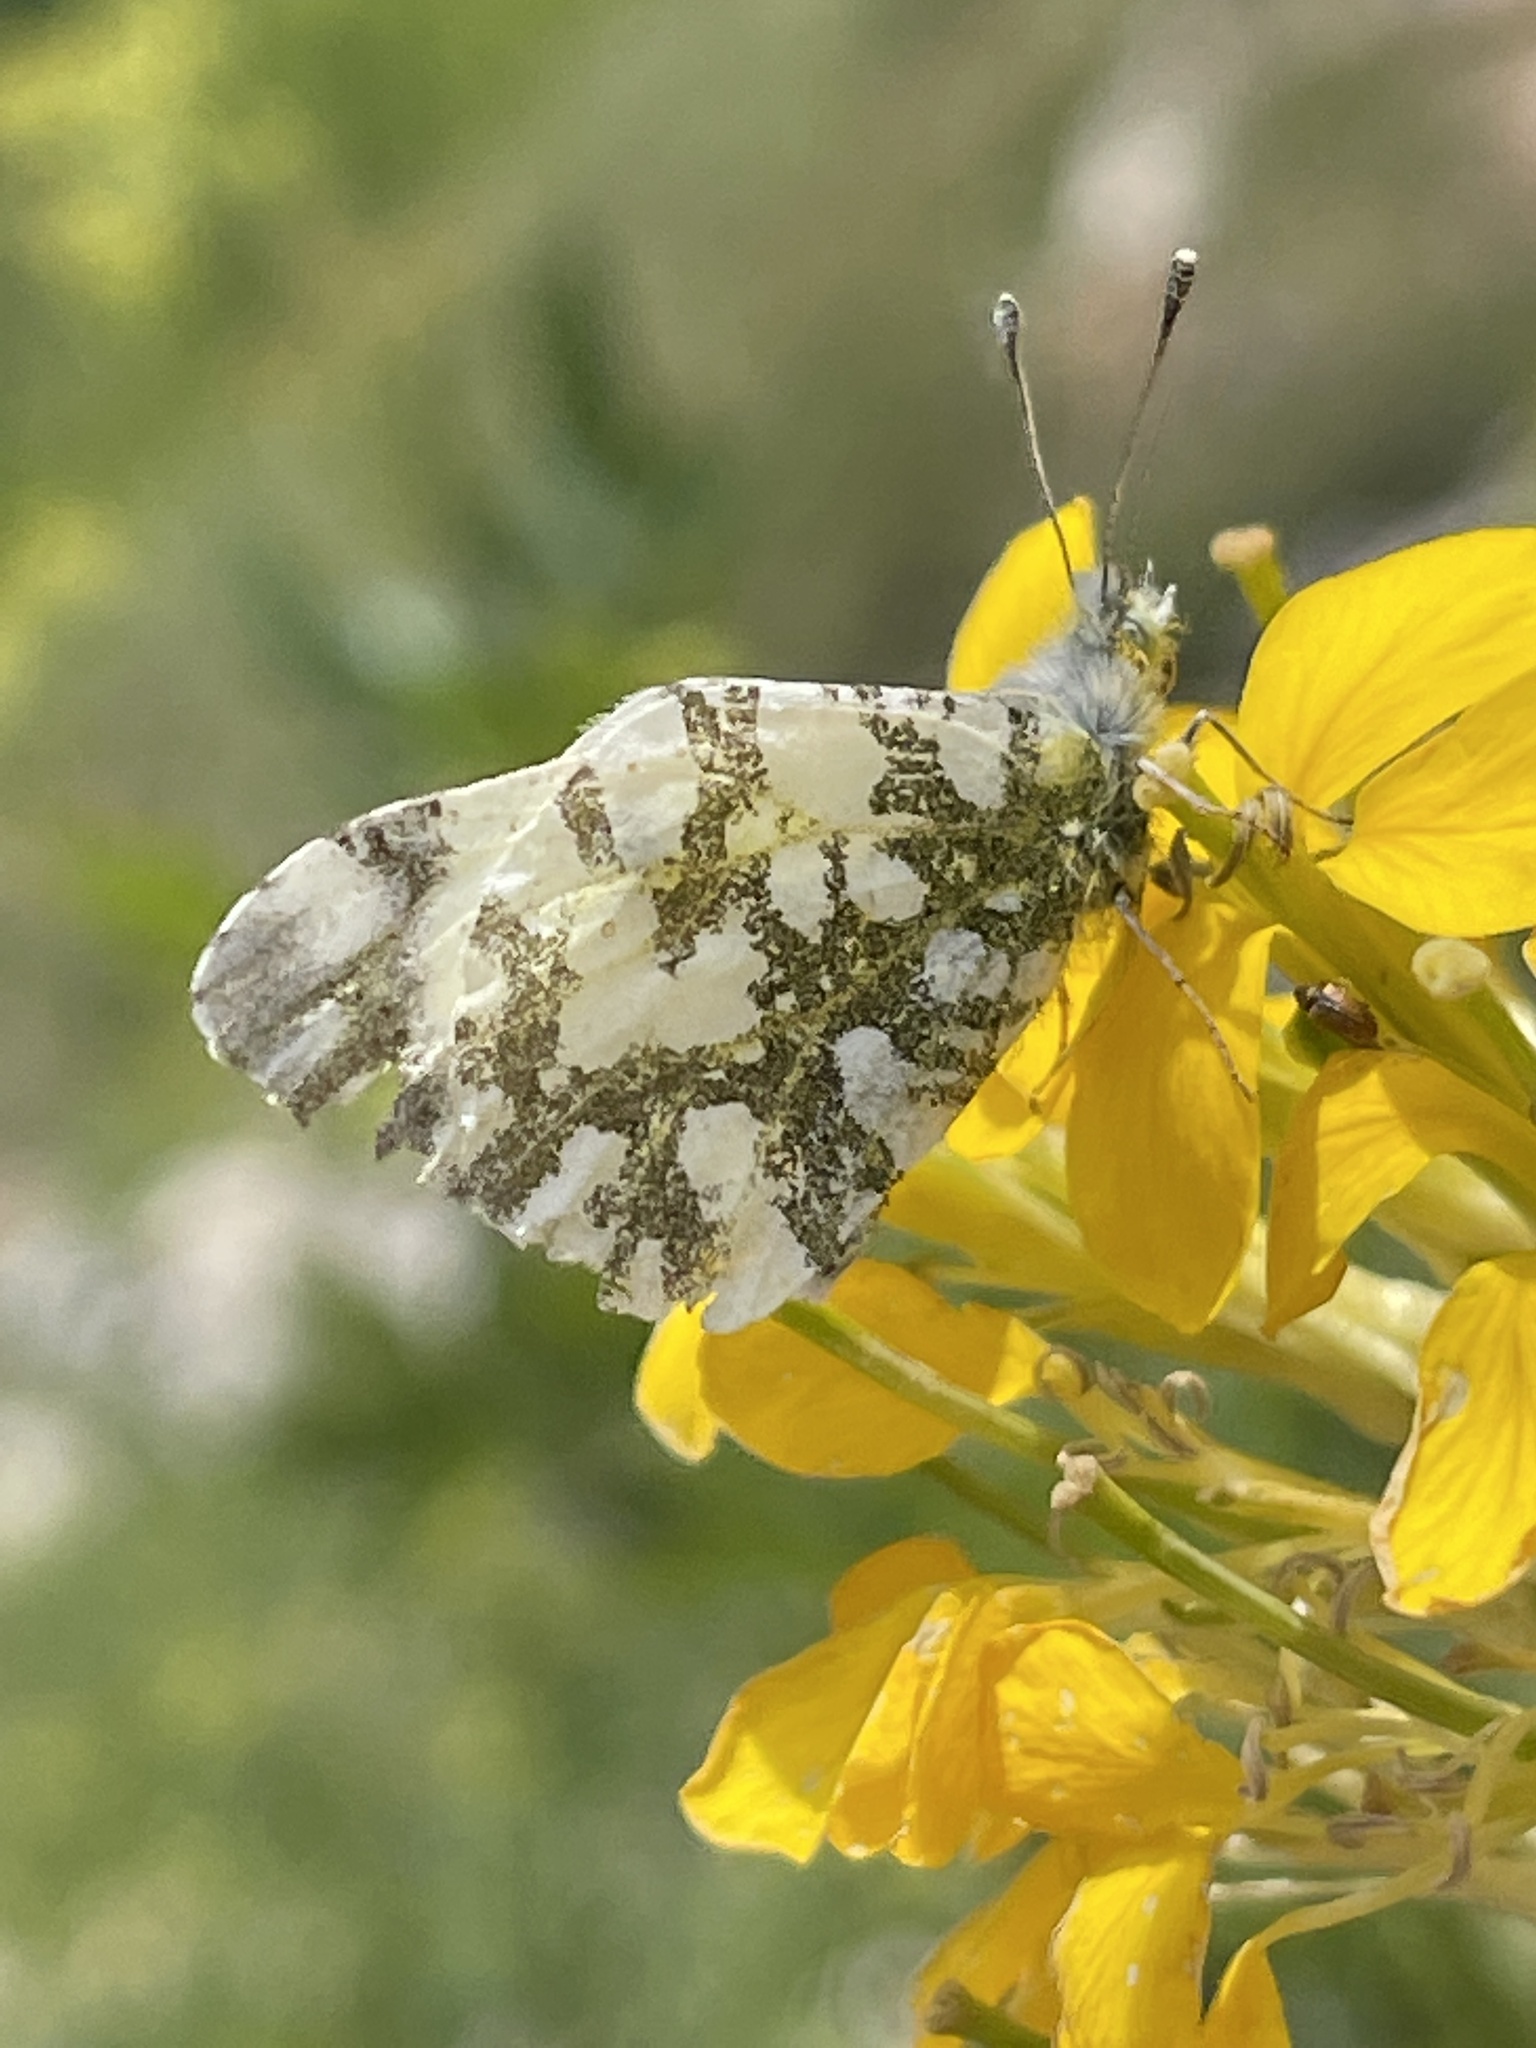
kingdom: Animalia
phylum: Arthropoda
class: Insecta
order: Lepidoptera
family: Pieridae
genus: Euchloe
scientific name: Euchloe ausonides
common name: Creamy marblewing
